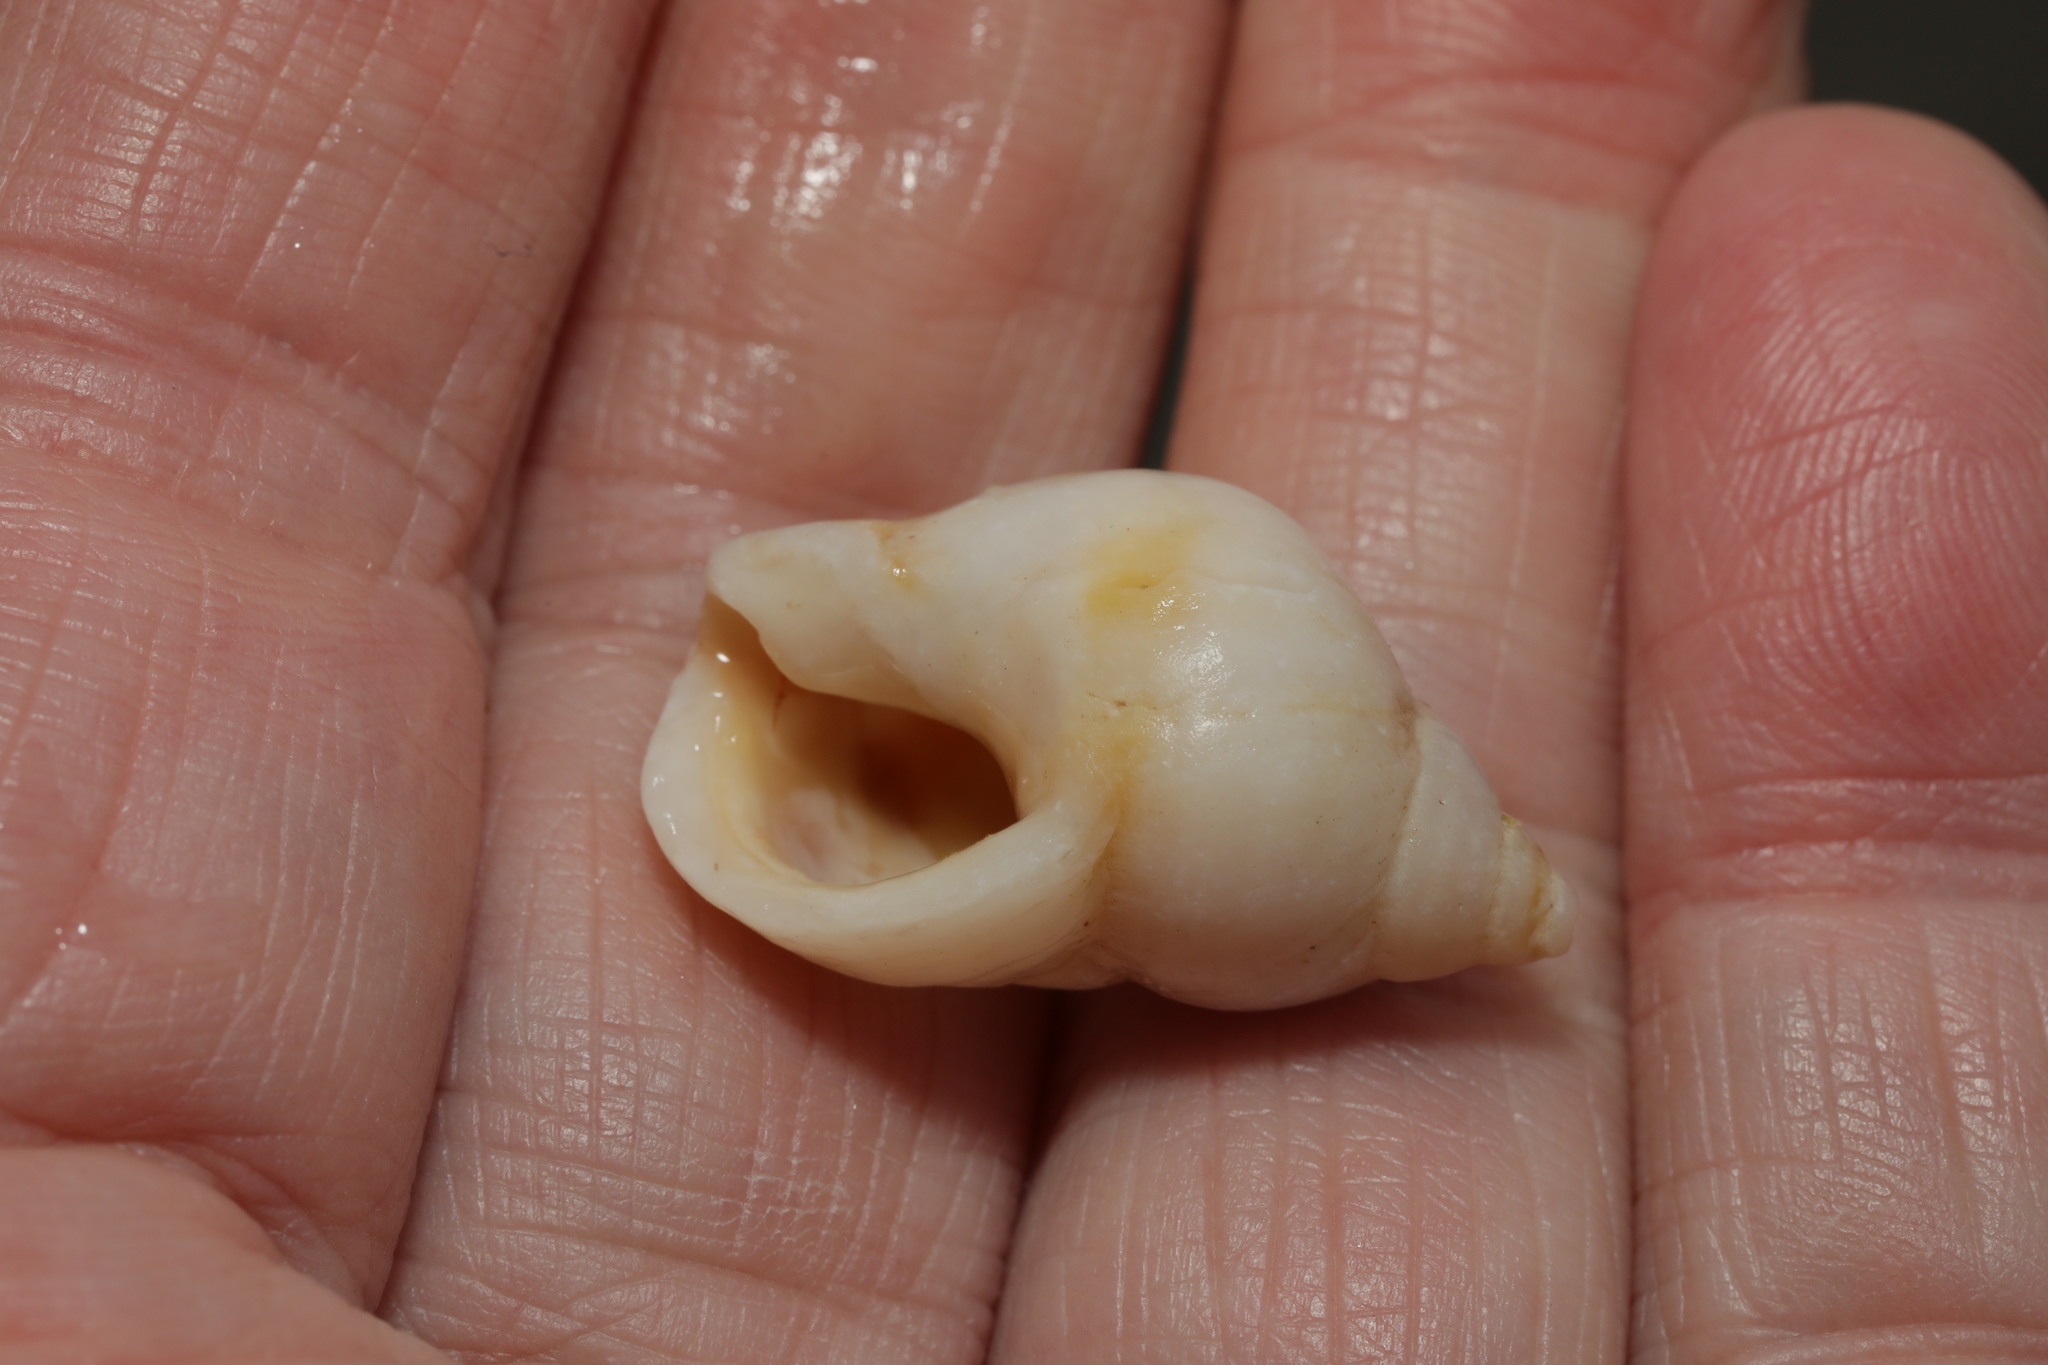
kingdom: Animalia
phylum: Mollusca
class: Gastropoda
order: Neogastropoda
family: Muricidae
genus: Nucella
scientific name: Nucella lapillus
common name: Dog whelk
